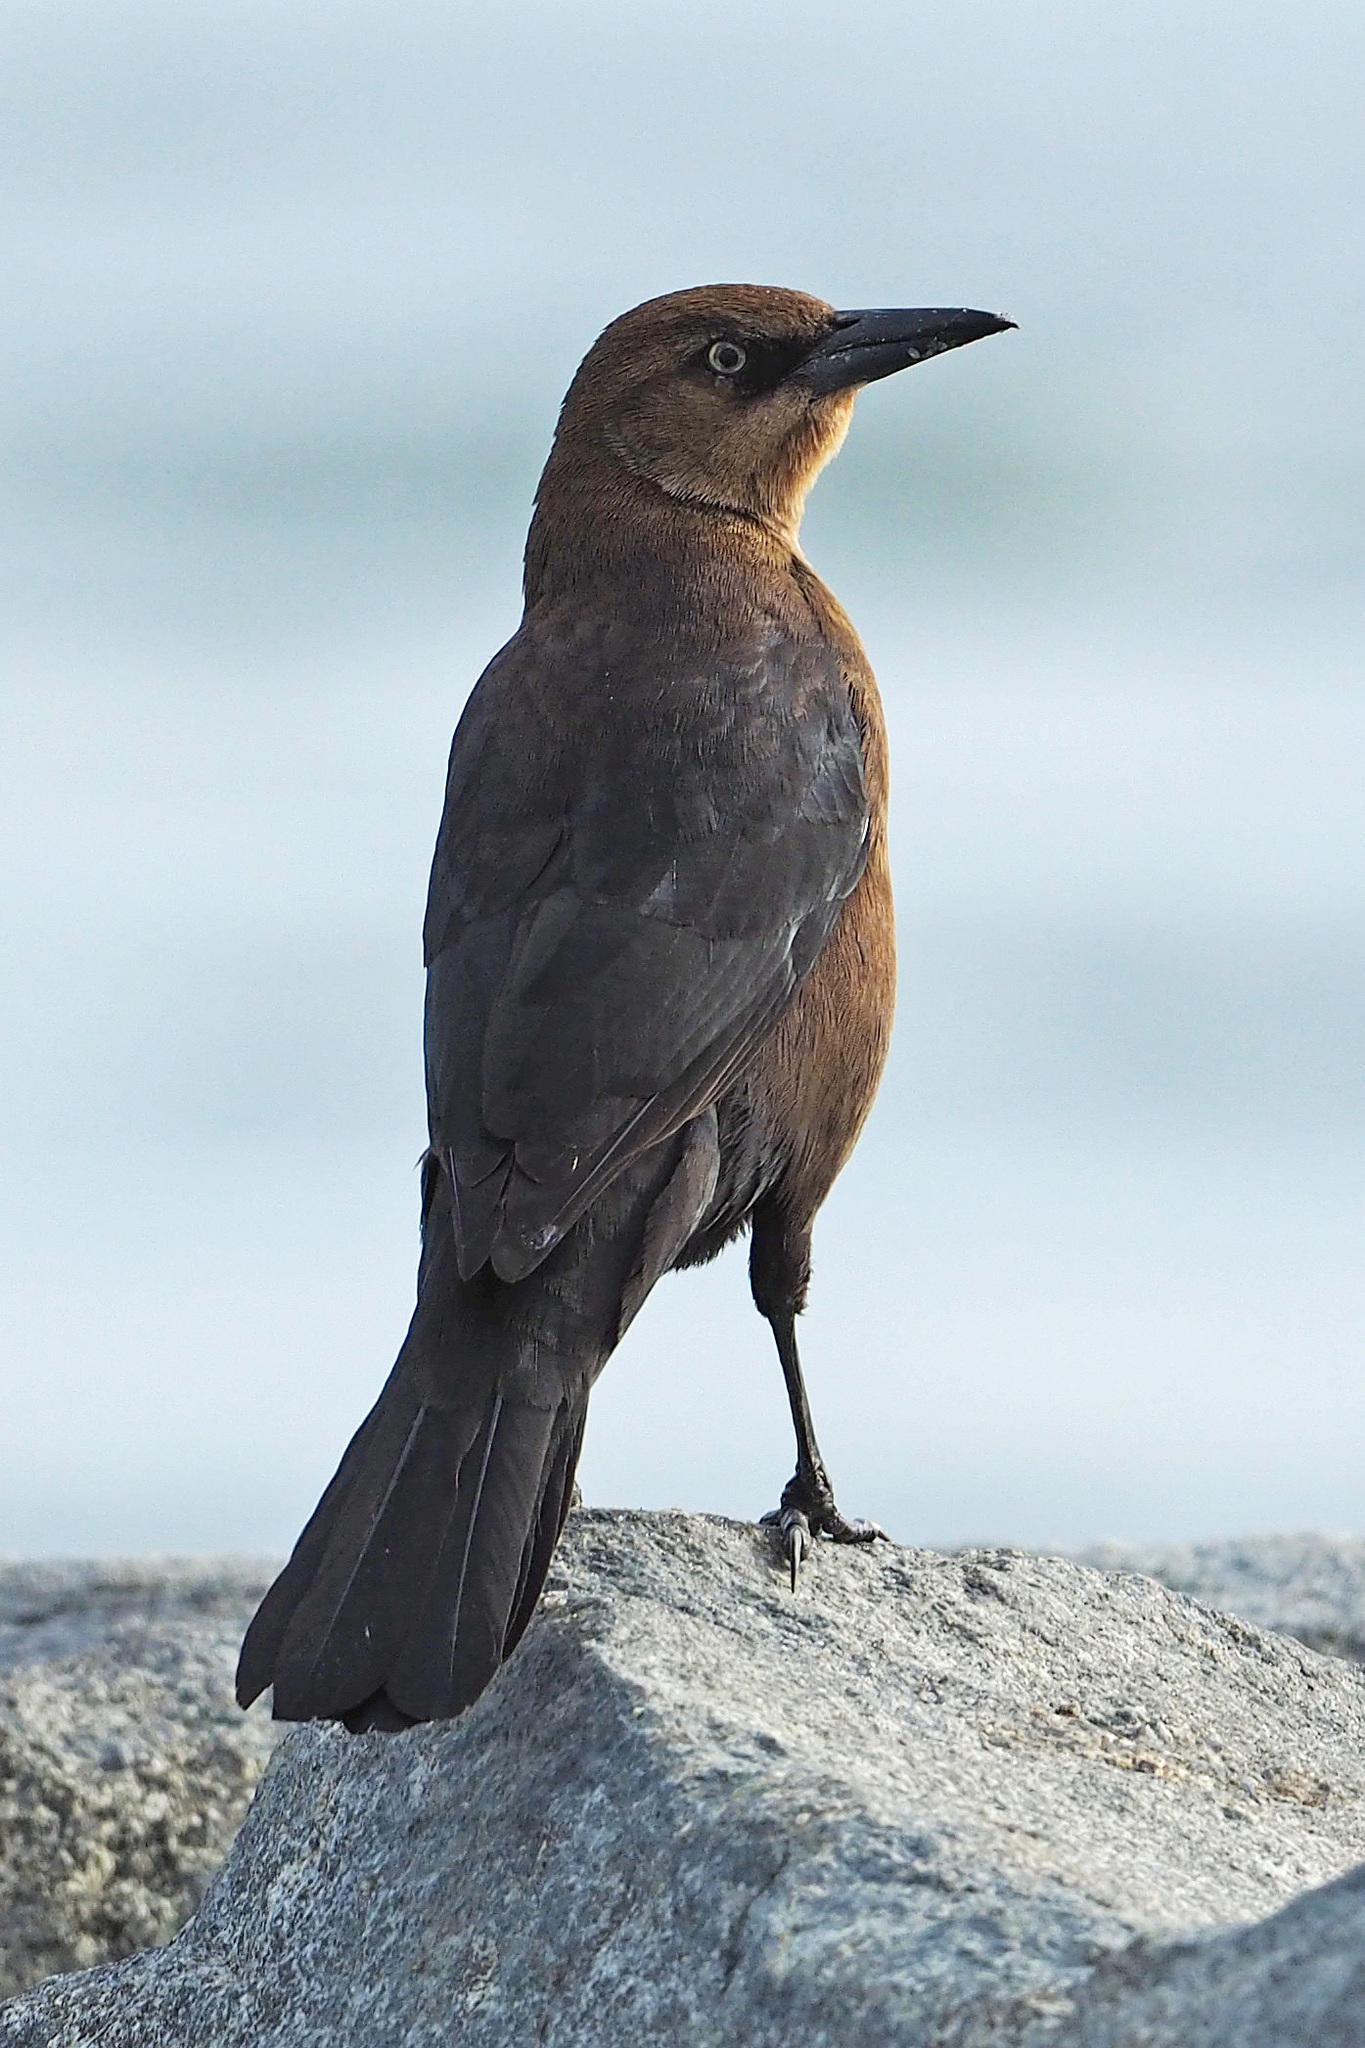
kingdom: Animalia
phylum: Chordata
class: Aves
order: Passeriformes
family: Icteridae
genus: Quiscalus
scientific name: Quiscalus major
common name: Boat-tailed grackle
